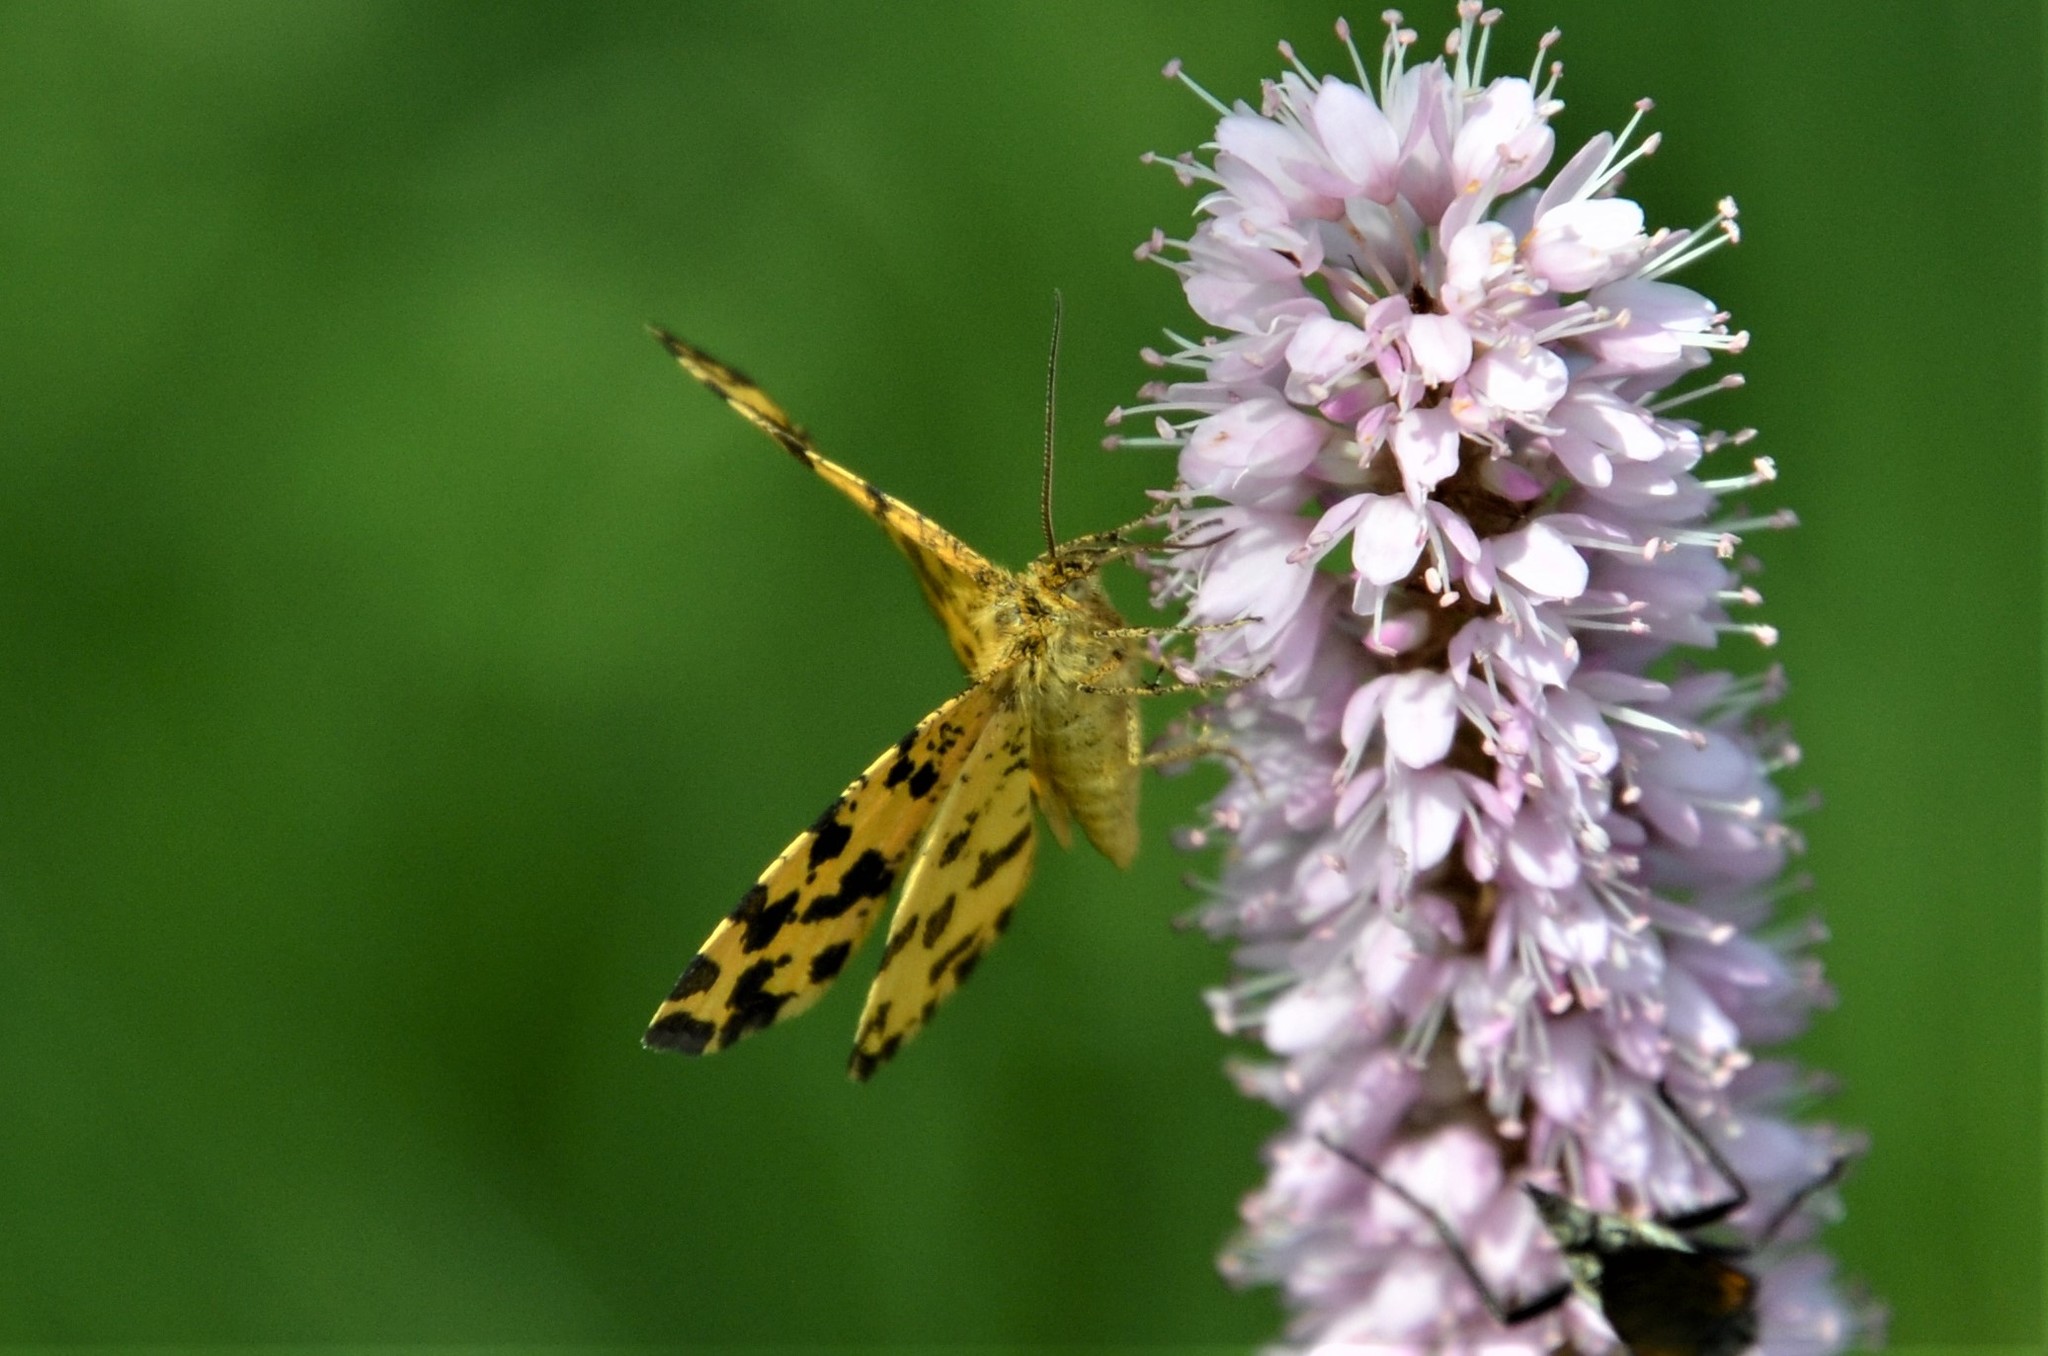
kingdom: Animalia
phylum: Arthropoda
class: Insecta
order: Lepidoptera
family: Geometridae
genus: Pseudopanthera
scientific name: Pseudopanthera macularia
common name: Speckled yellow
